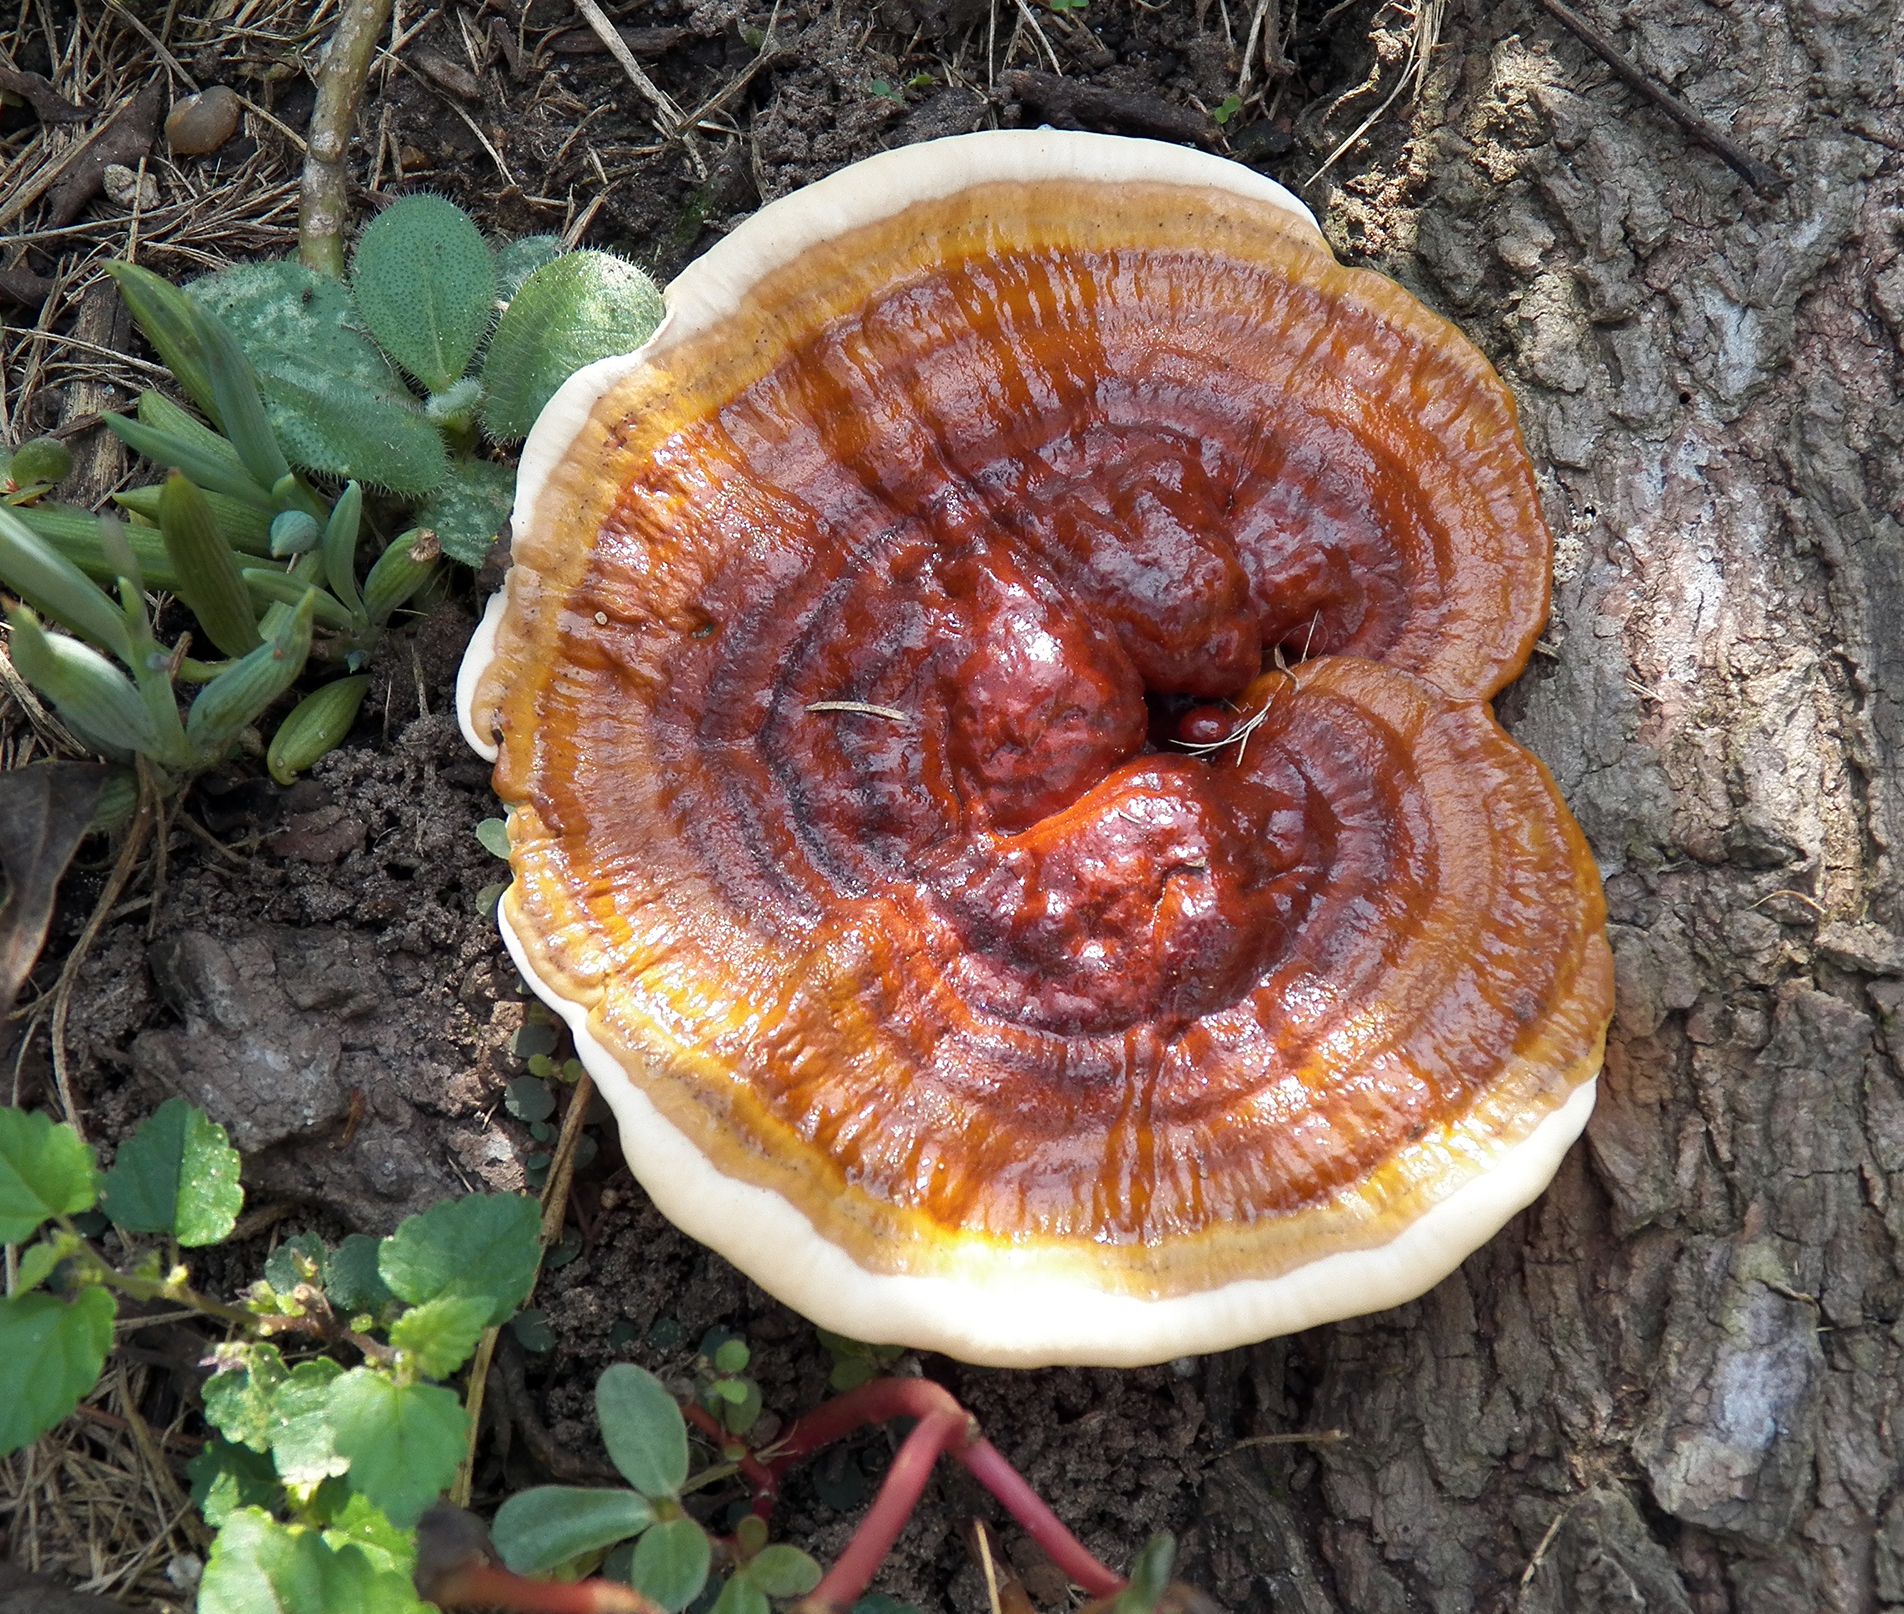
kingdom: Fungi
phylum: Basidiomycota
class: Agaricomycetes
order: Polyporales
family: Polyporaceae
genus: Ganoderma
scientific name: Ganoderma resinaceum
